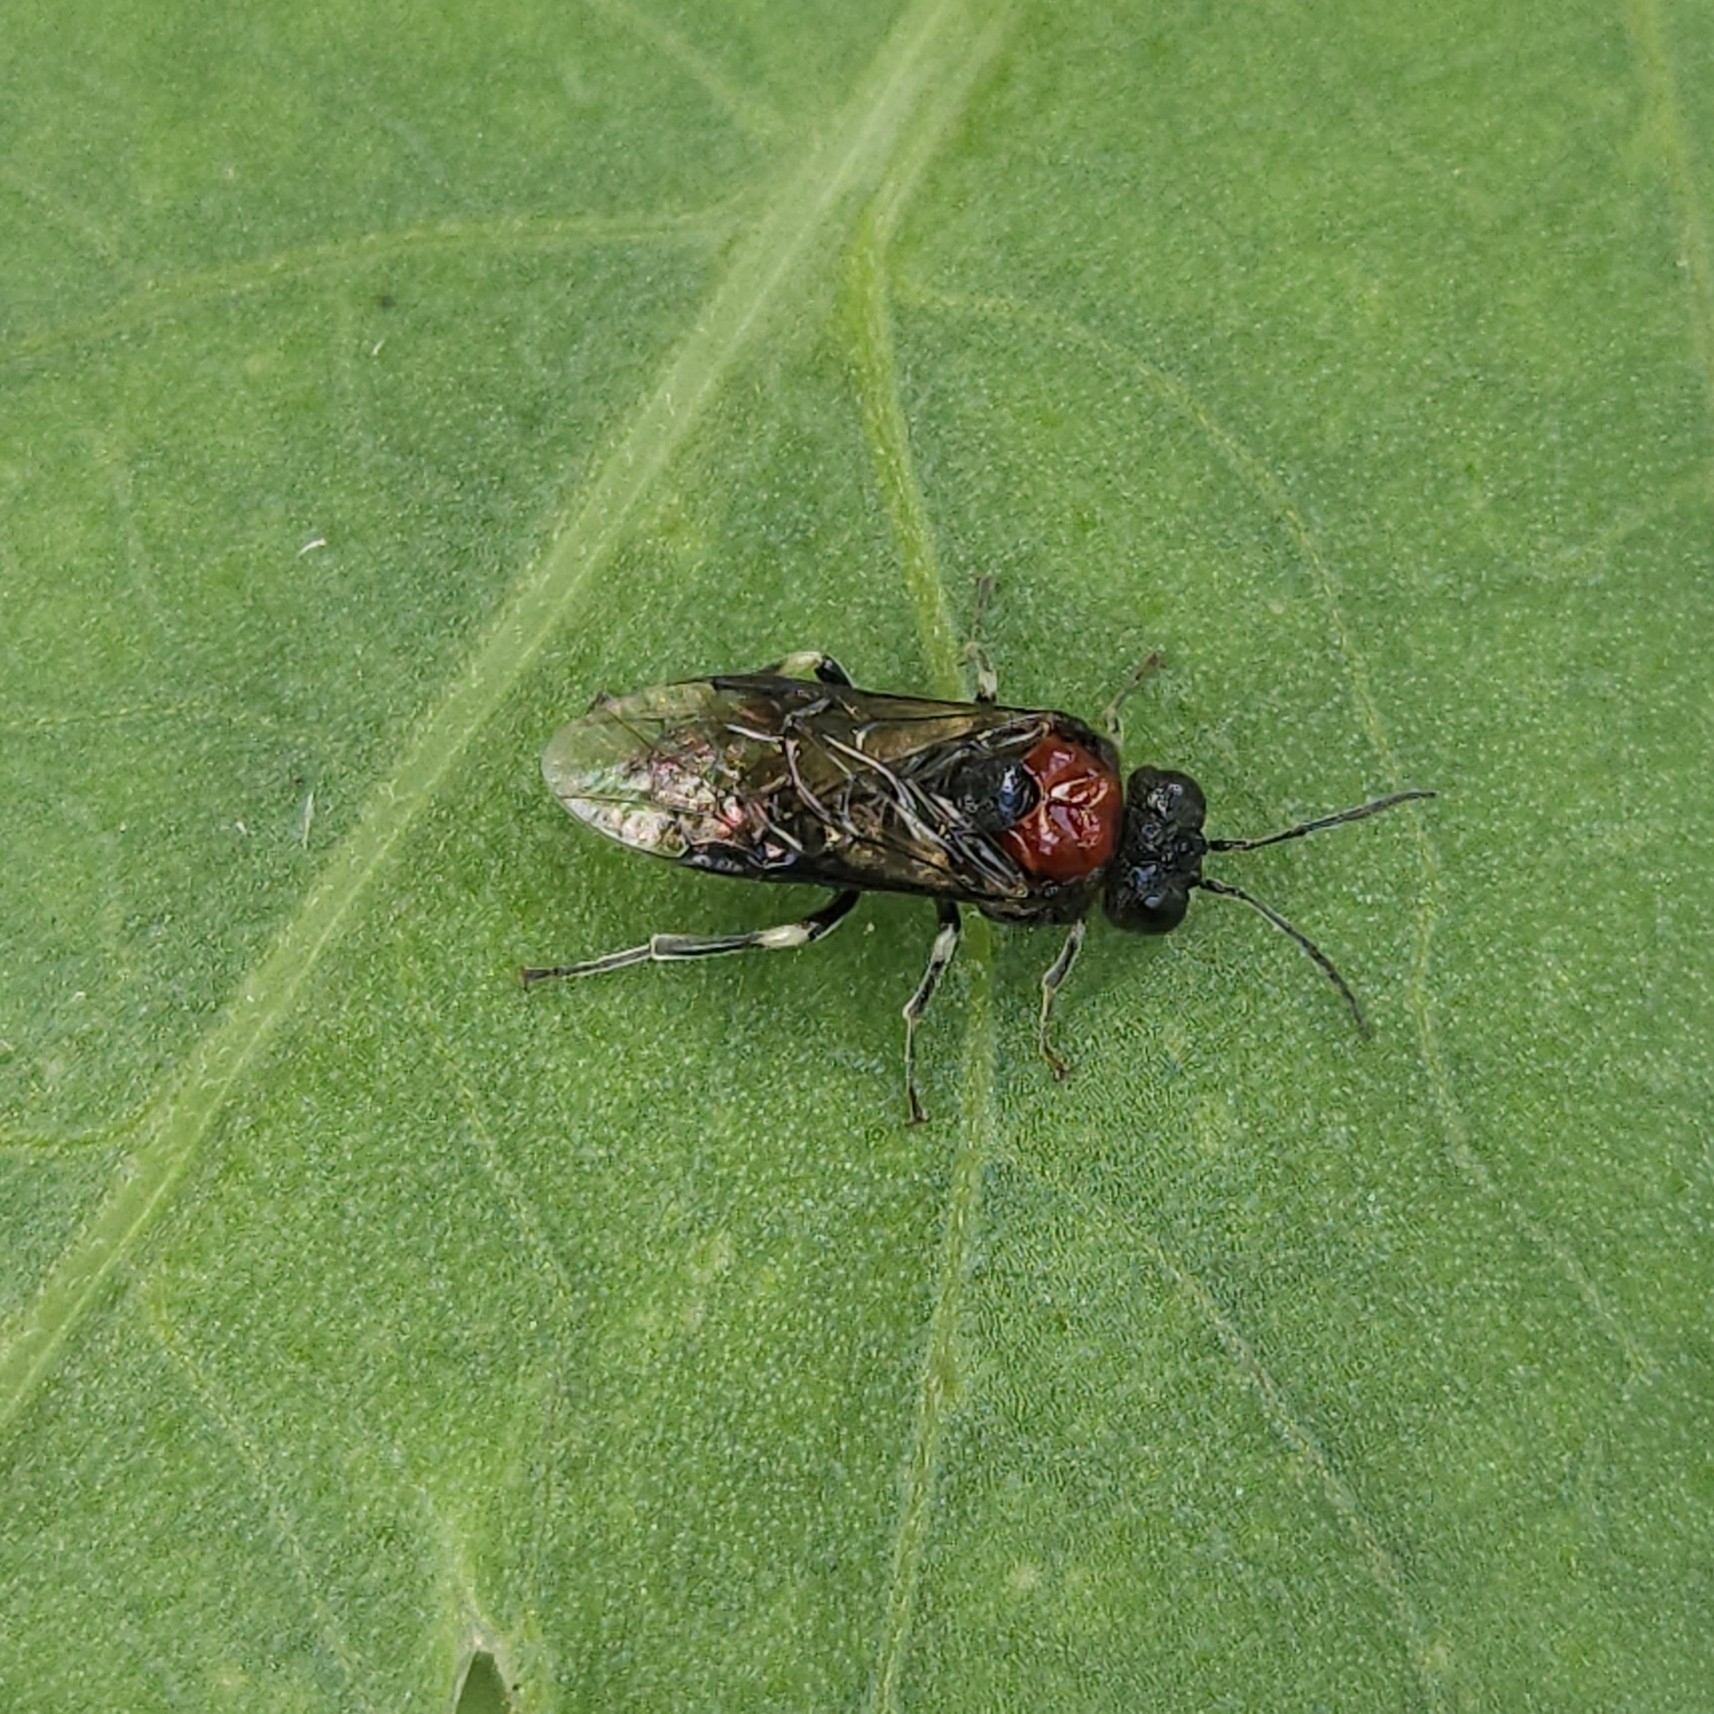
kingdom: Animalia
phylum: Arthropoda
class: Insecta
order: Hymenoptera
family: Tenthredinidae
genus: Eriocampa
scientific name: Eriocampa ovata
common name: Alder wooly sawfly
